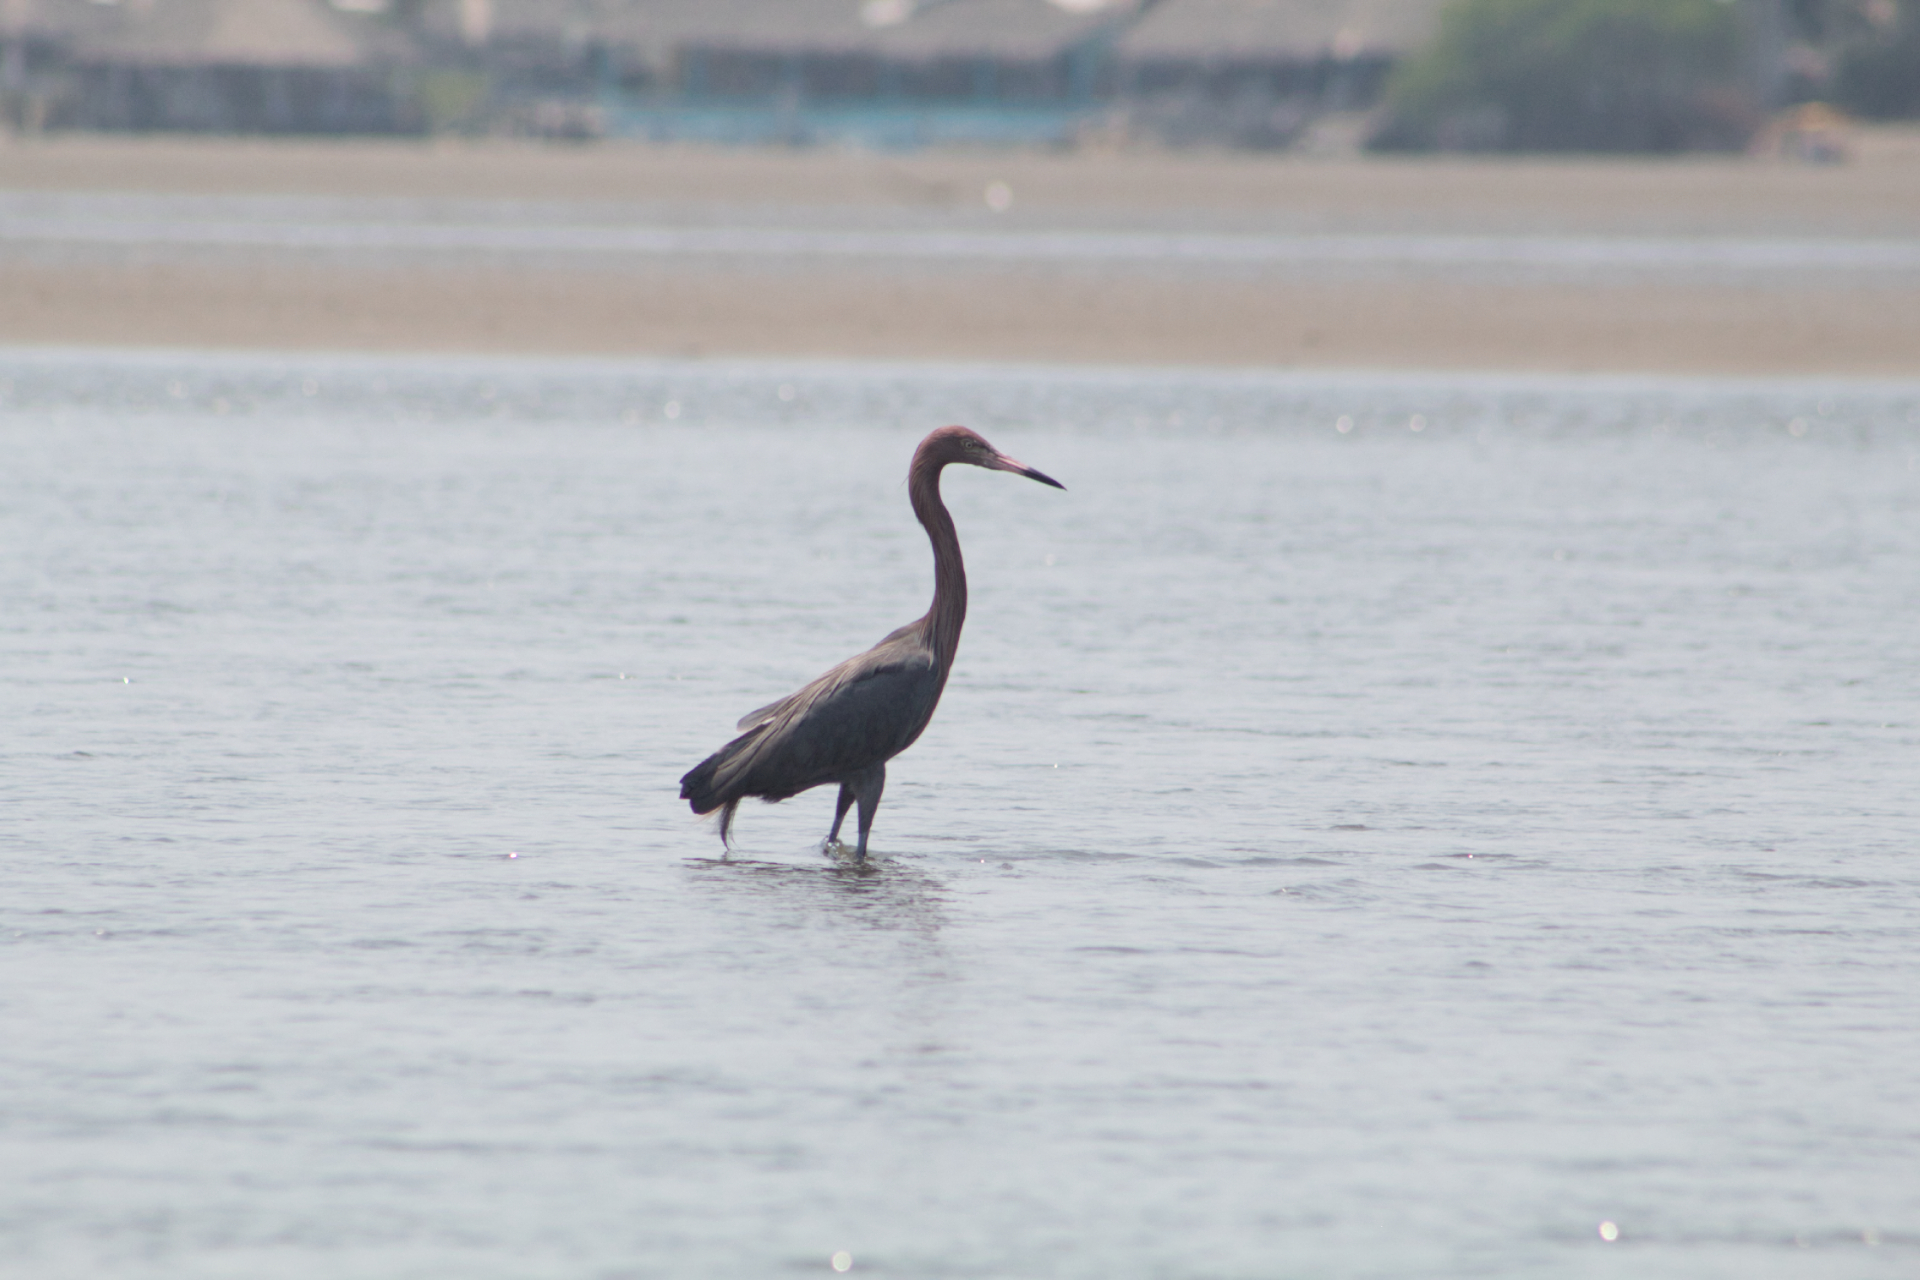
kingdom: Animalia
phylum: Chordata
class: Aves
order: Pelecaniformes
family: Ardeidae
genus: Egretta
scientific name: Egretta rufescens
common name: Reddish egret
